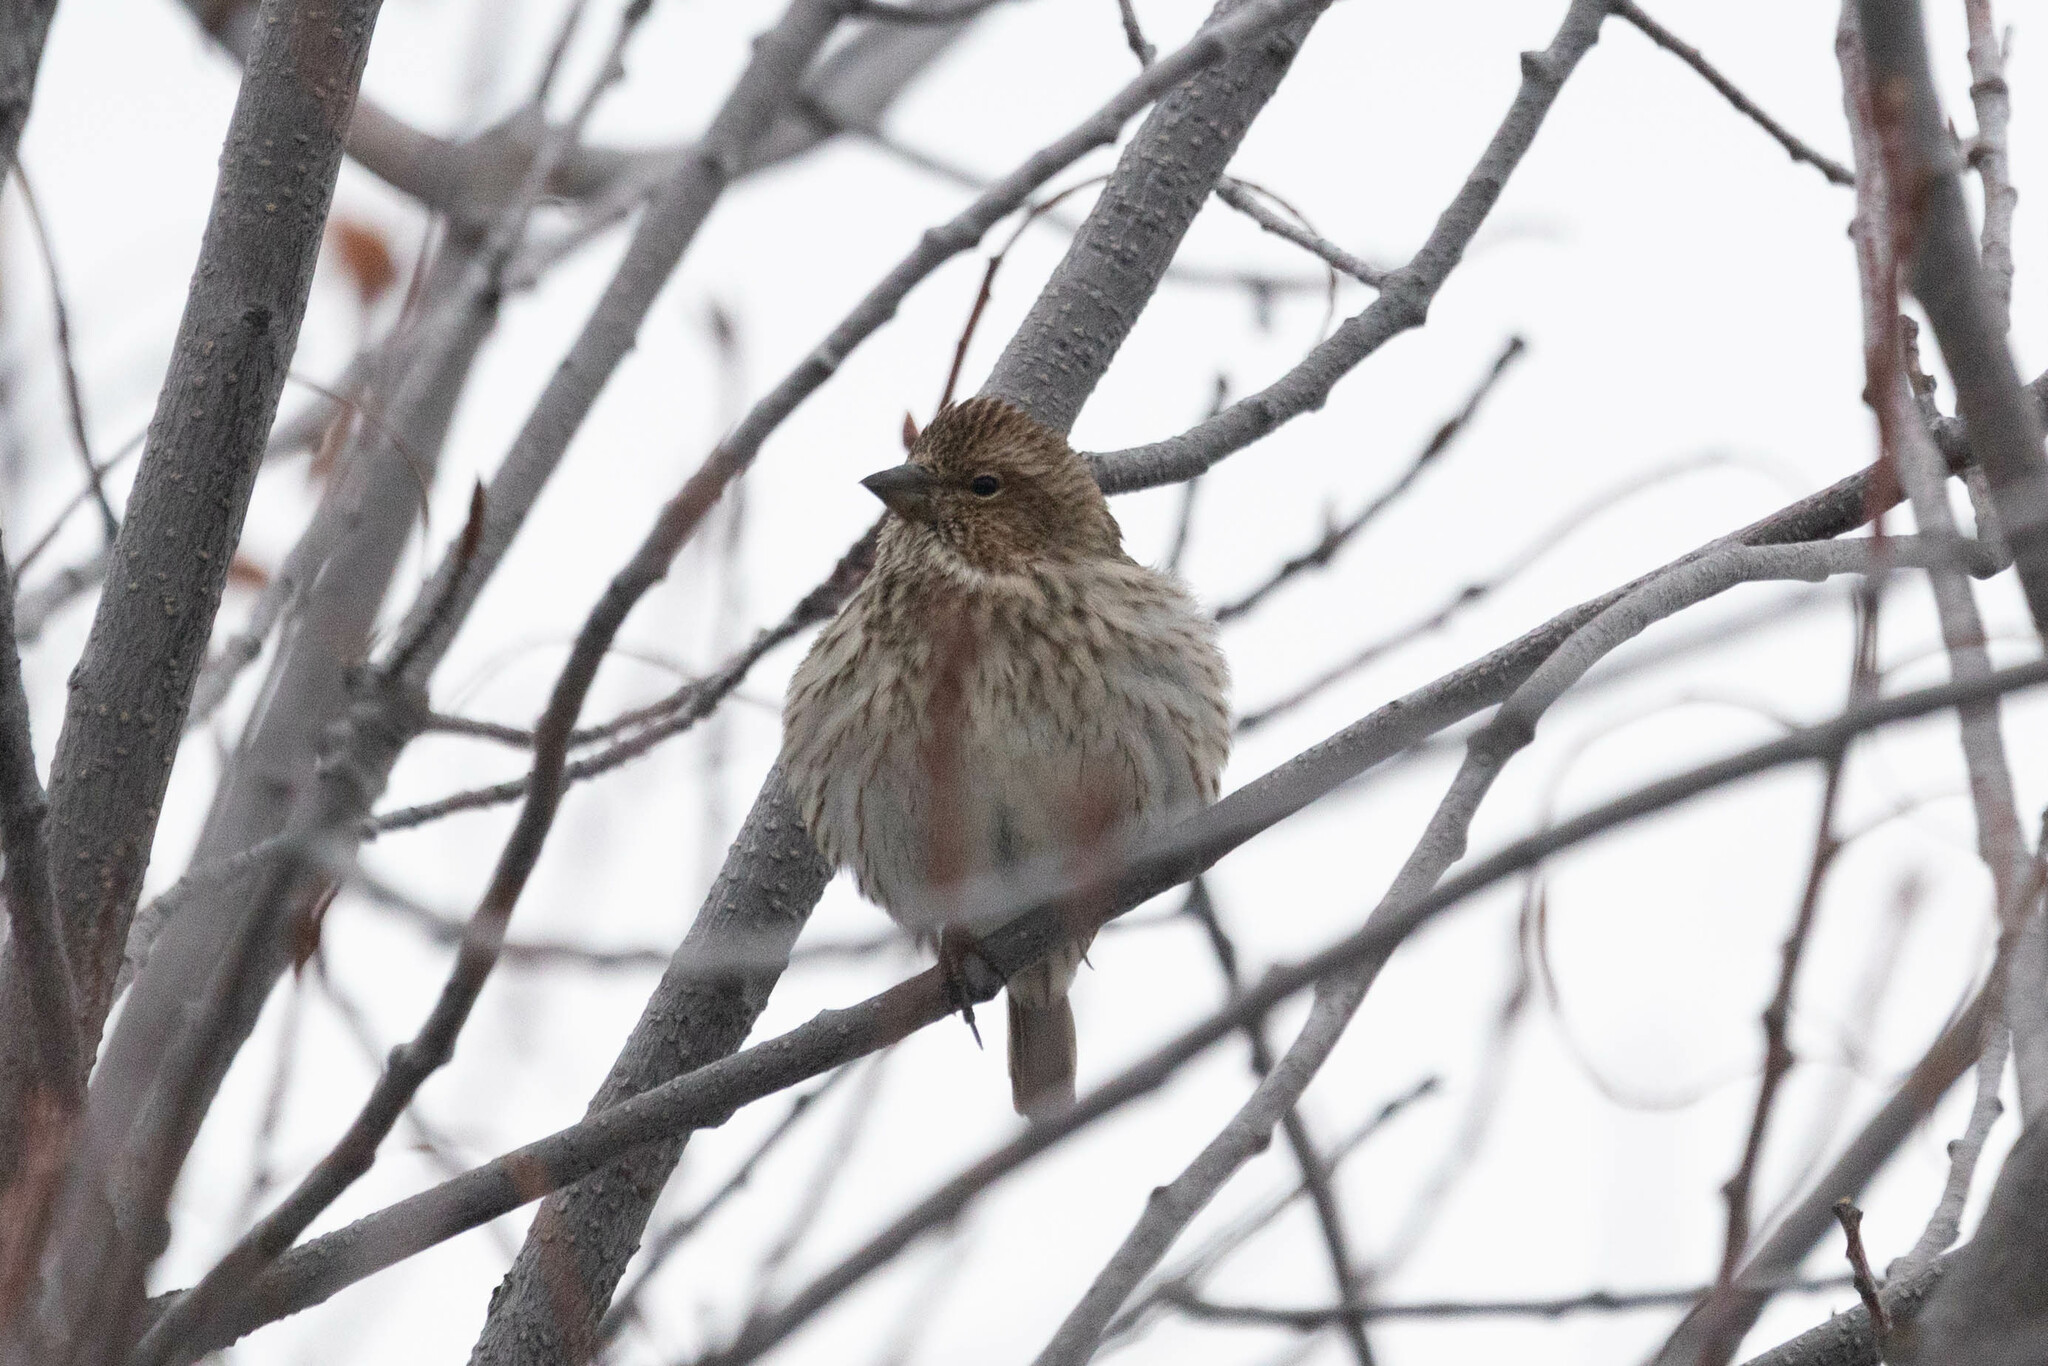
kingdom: Animalia
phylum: Chordata
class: Aves
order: Passeriformes
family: Fringillidae
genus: Haemorhous
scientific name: Haemorhous cassinii
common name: Cassin's finch
